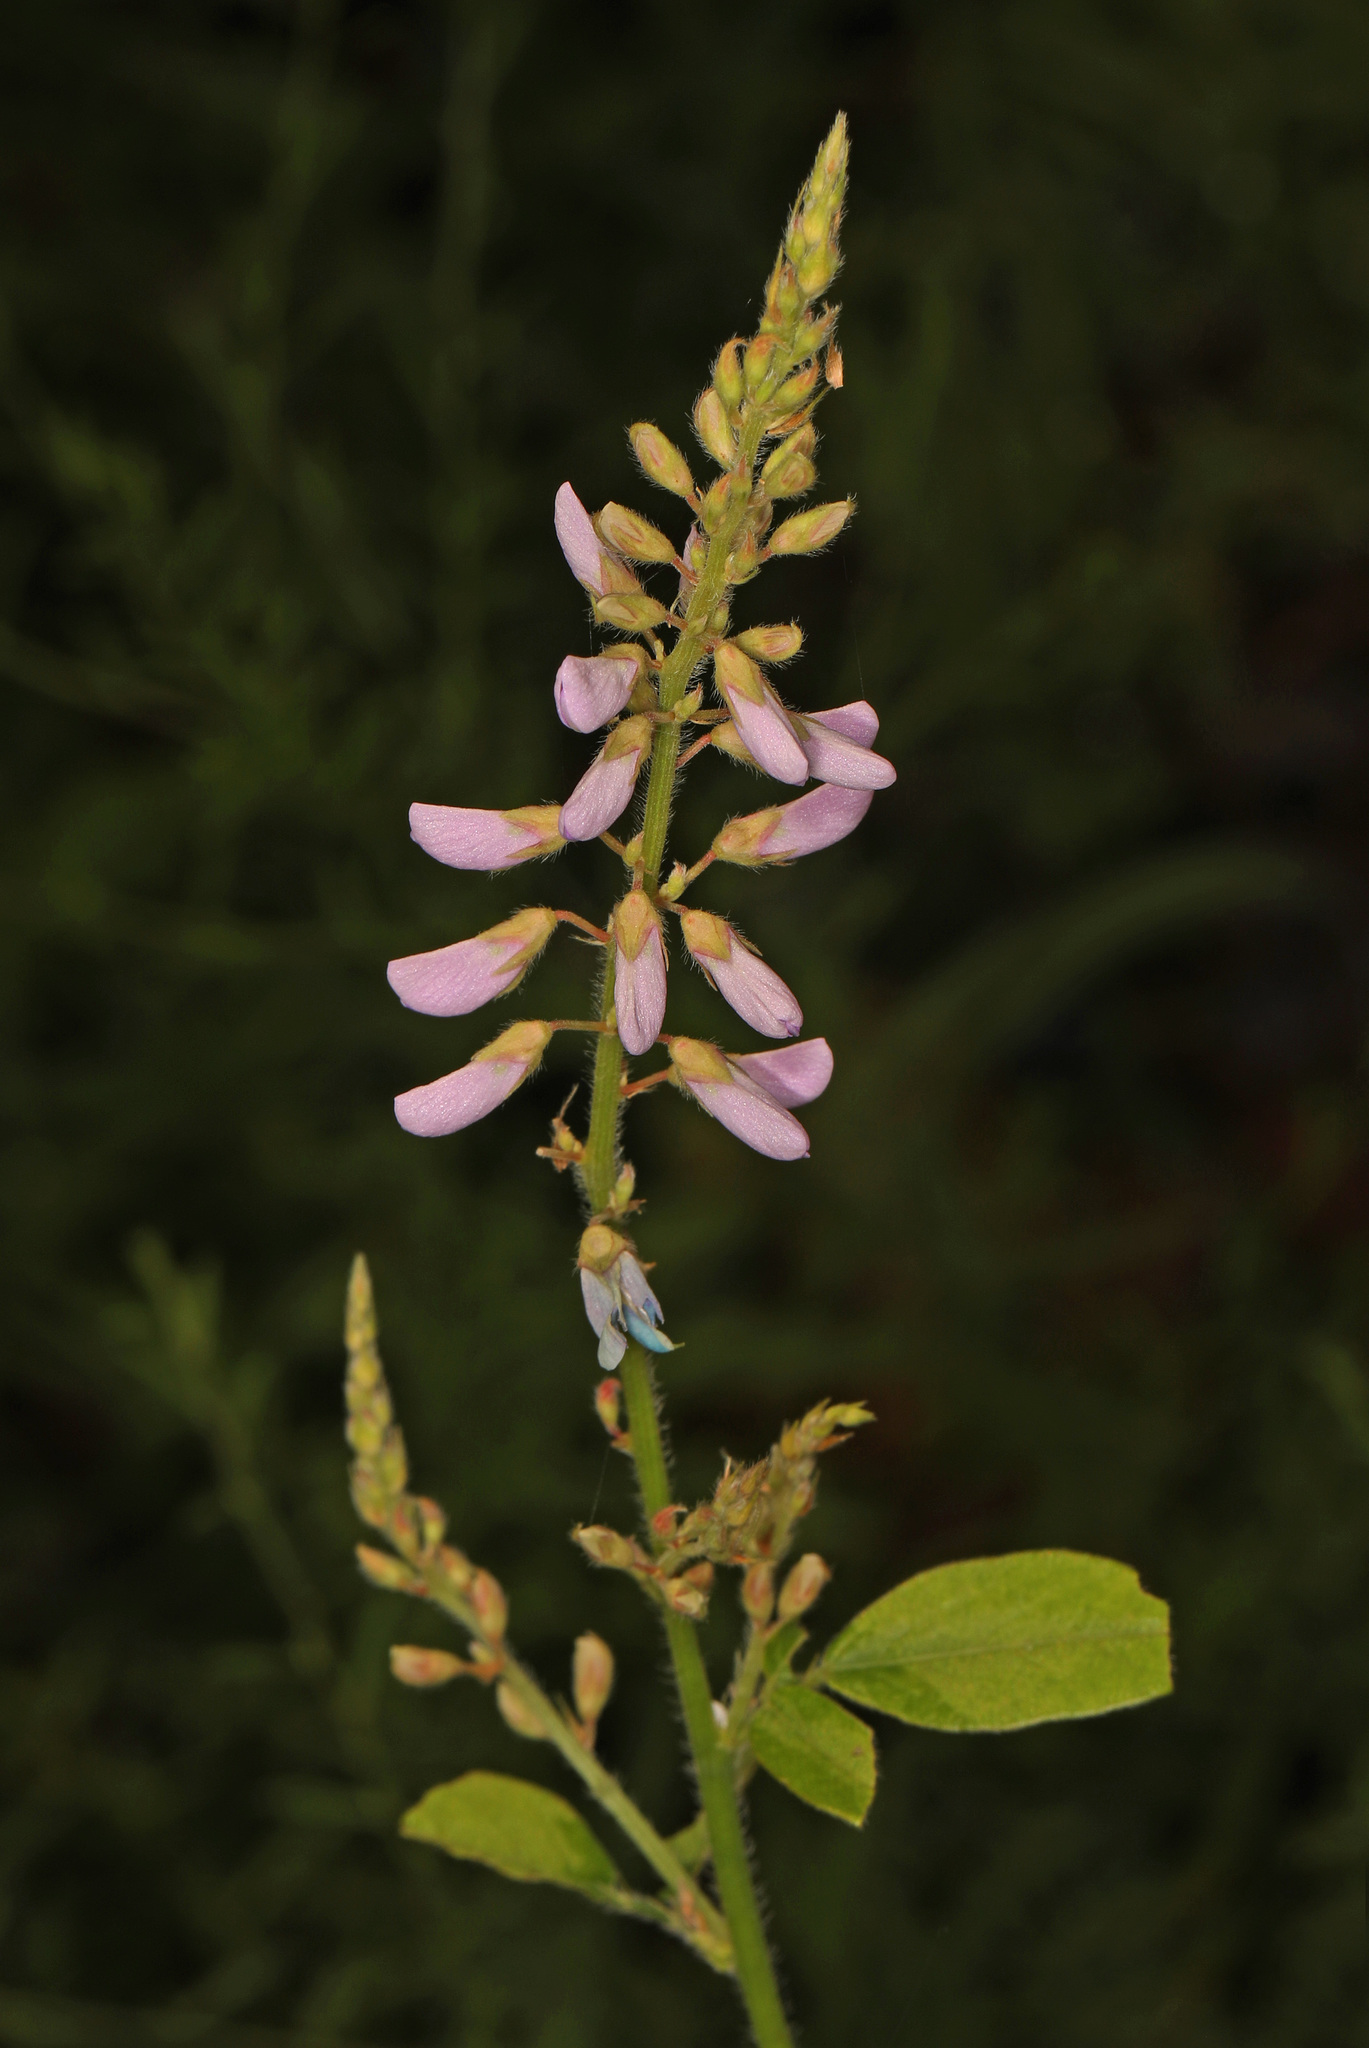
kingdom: Plantae
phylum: Tracheophyta
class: Magnoliopsida
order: Fabales
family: Fabaceae
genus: Desmodium
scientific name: Desmodium glabellum
